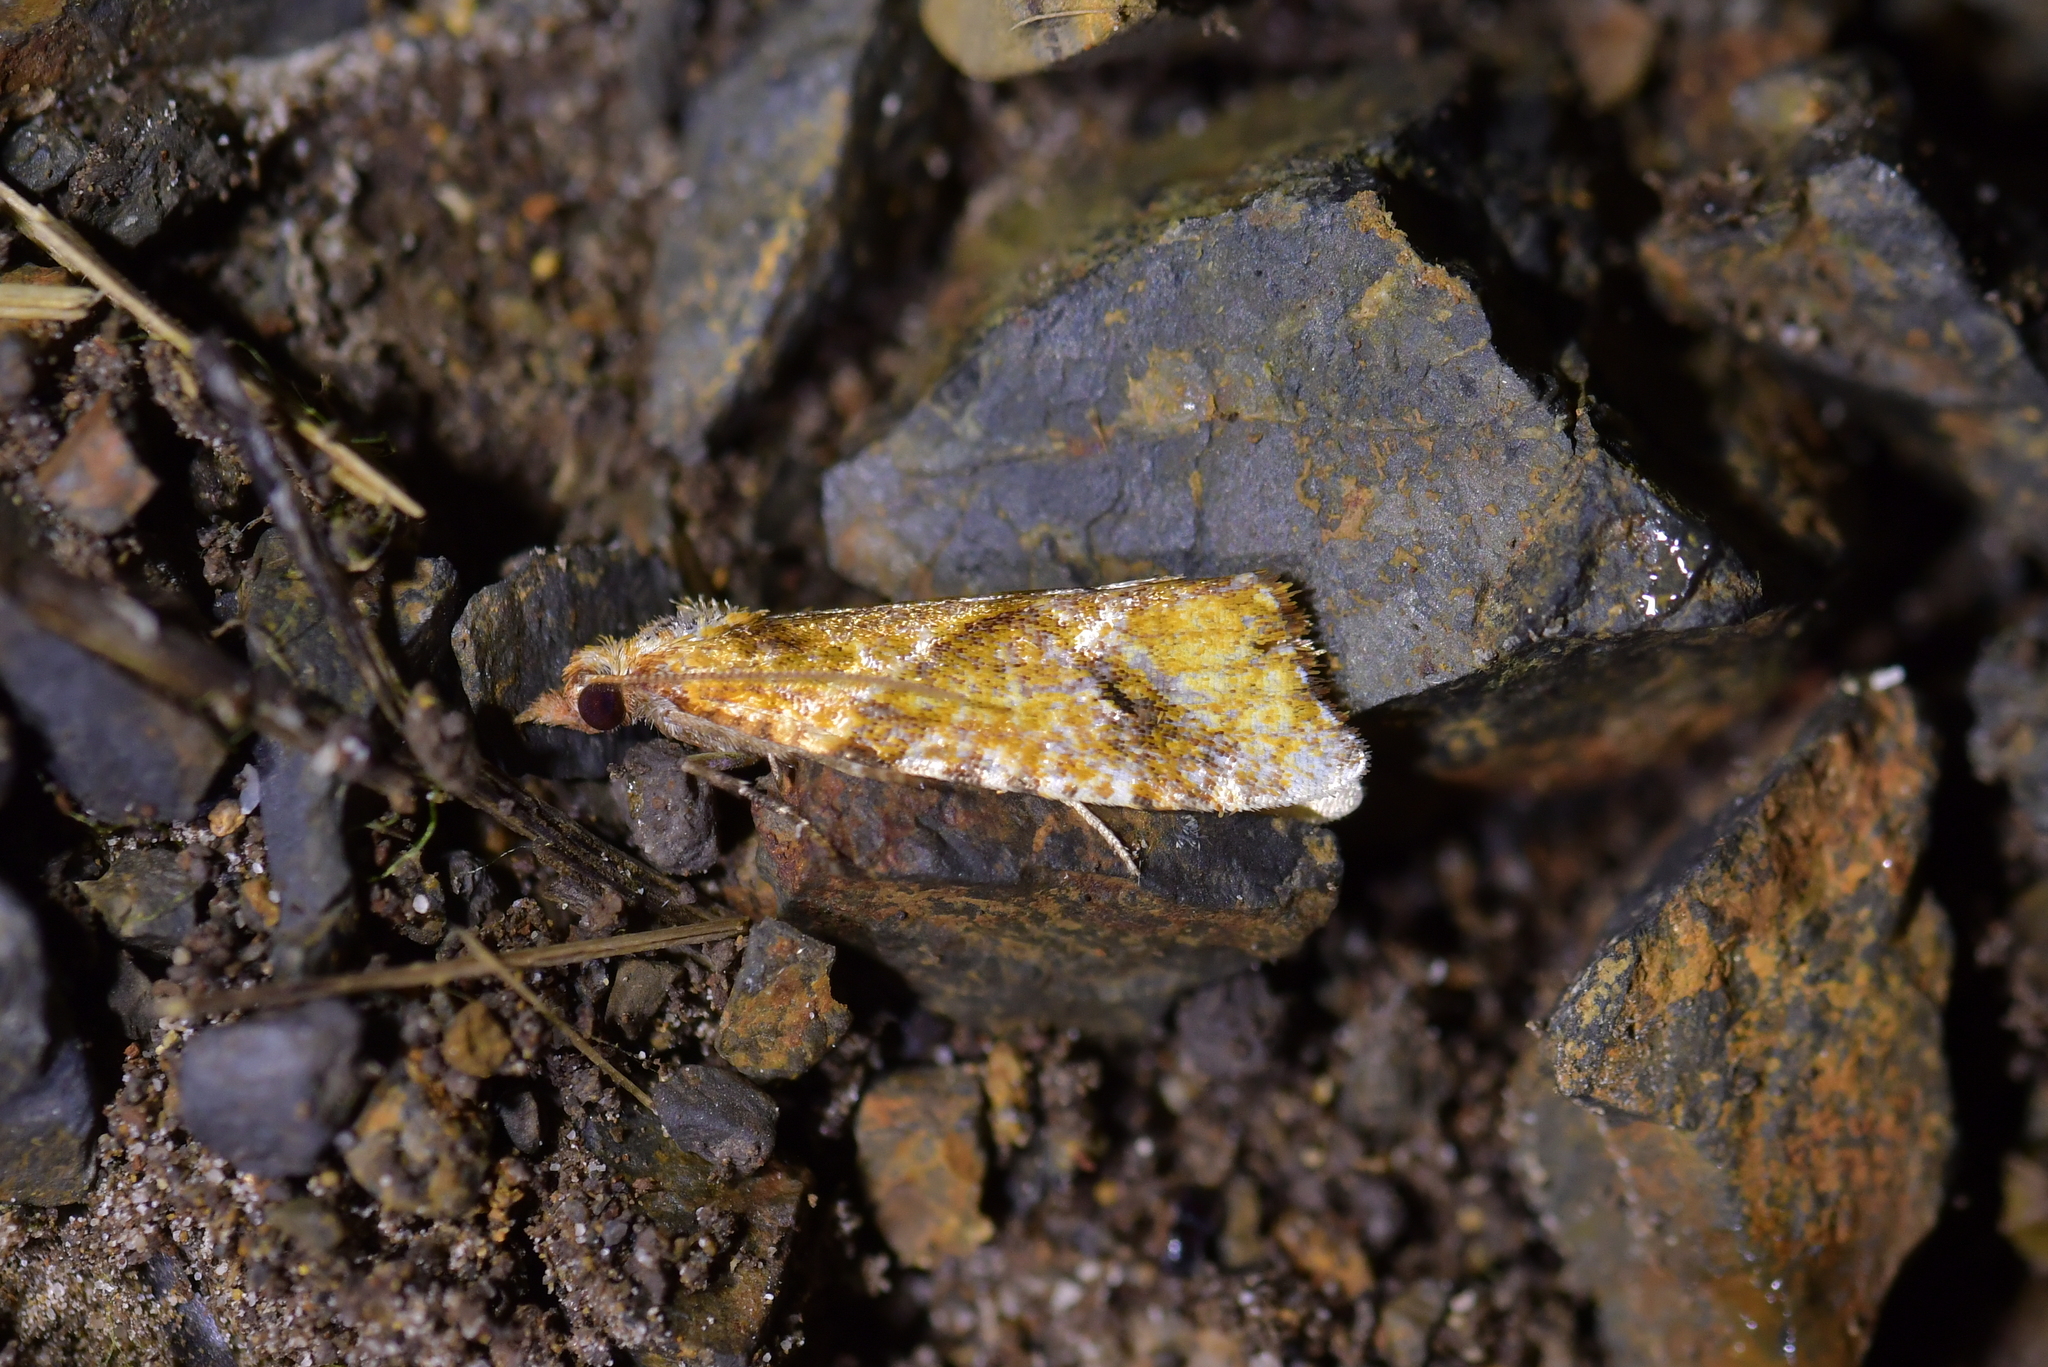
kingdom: Animalia
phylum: Arthropoda
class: Insecta
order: Lepidoptera
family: Tortricidae
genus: Pyrgotis
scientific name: Pyrgotis plagiatana
